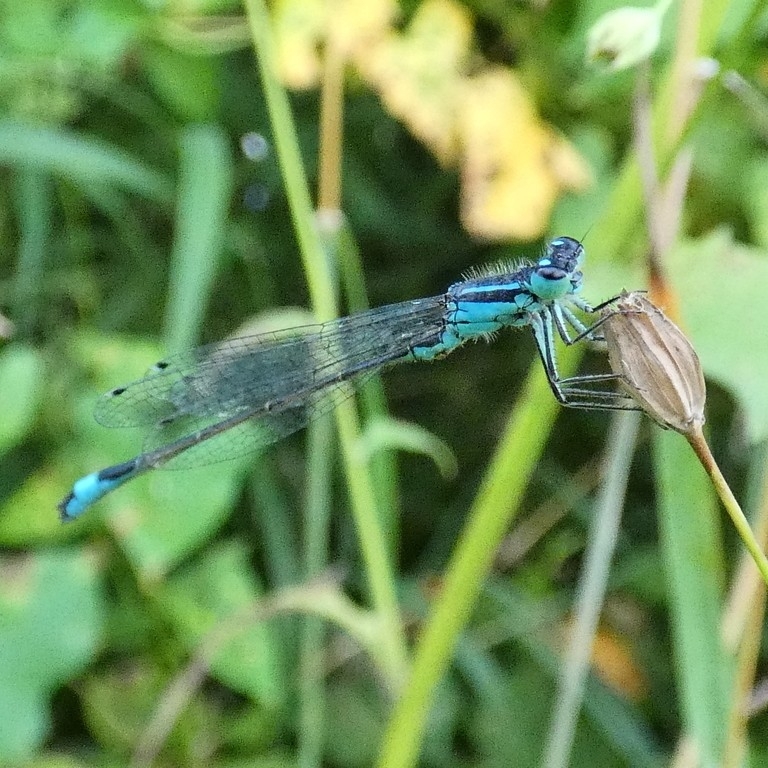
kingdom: Animalia
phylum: Arthropoda
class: Insecta
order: Odonata
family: Coenagrionidae
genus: Ischnura
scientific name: Ischnura elegans
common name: Blue-tailed damselfly
